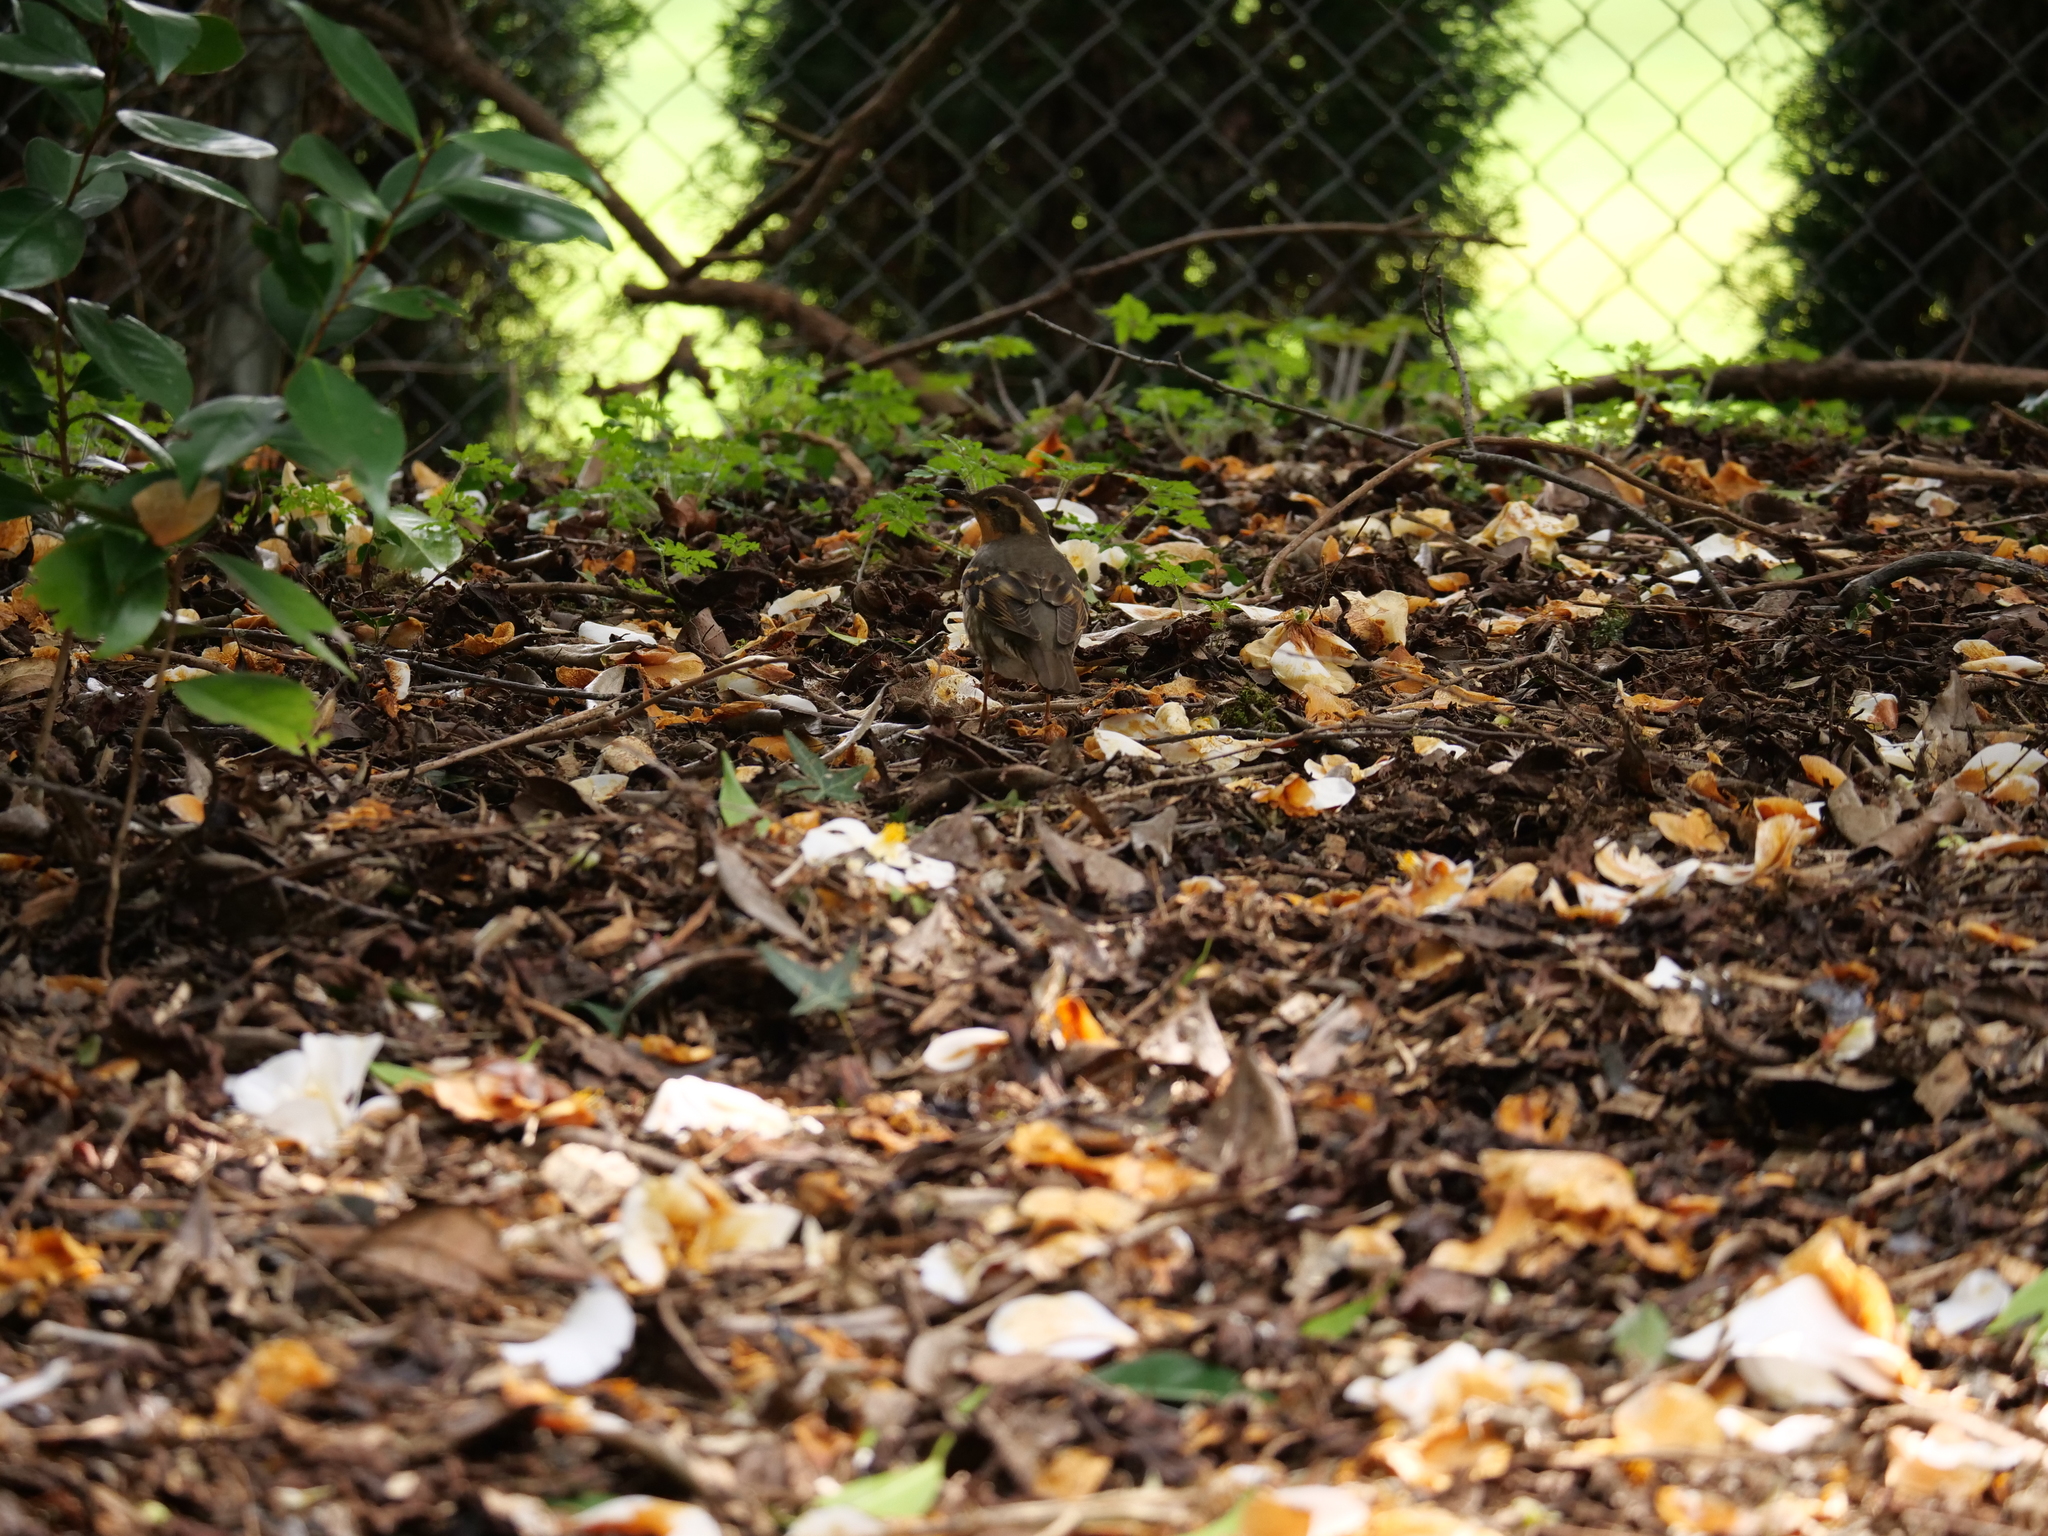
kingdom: Animalia
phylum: Chordata
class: Aves
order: Passeriformes
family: Turdidae
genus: Ixoreus
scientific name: Ixoreus naevius
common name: Varied thrush
